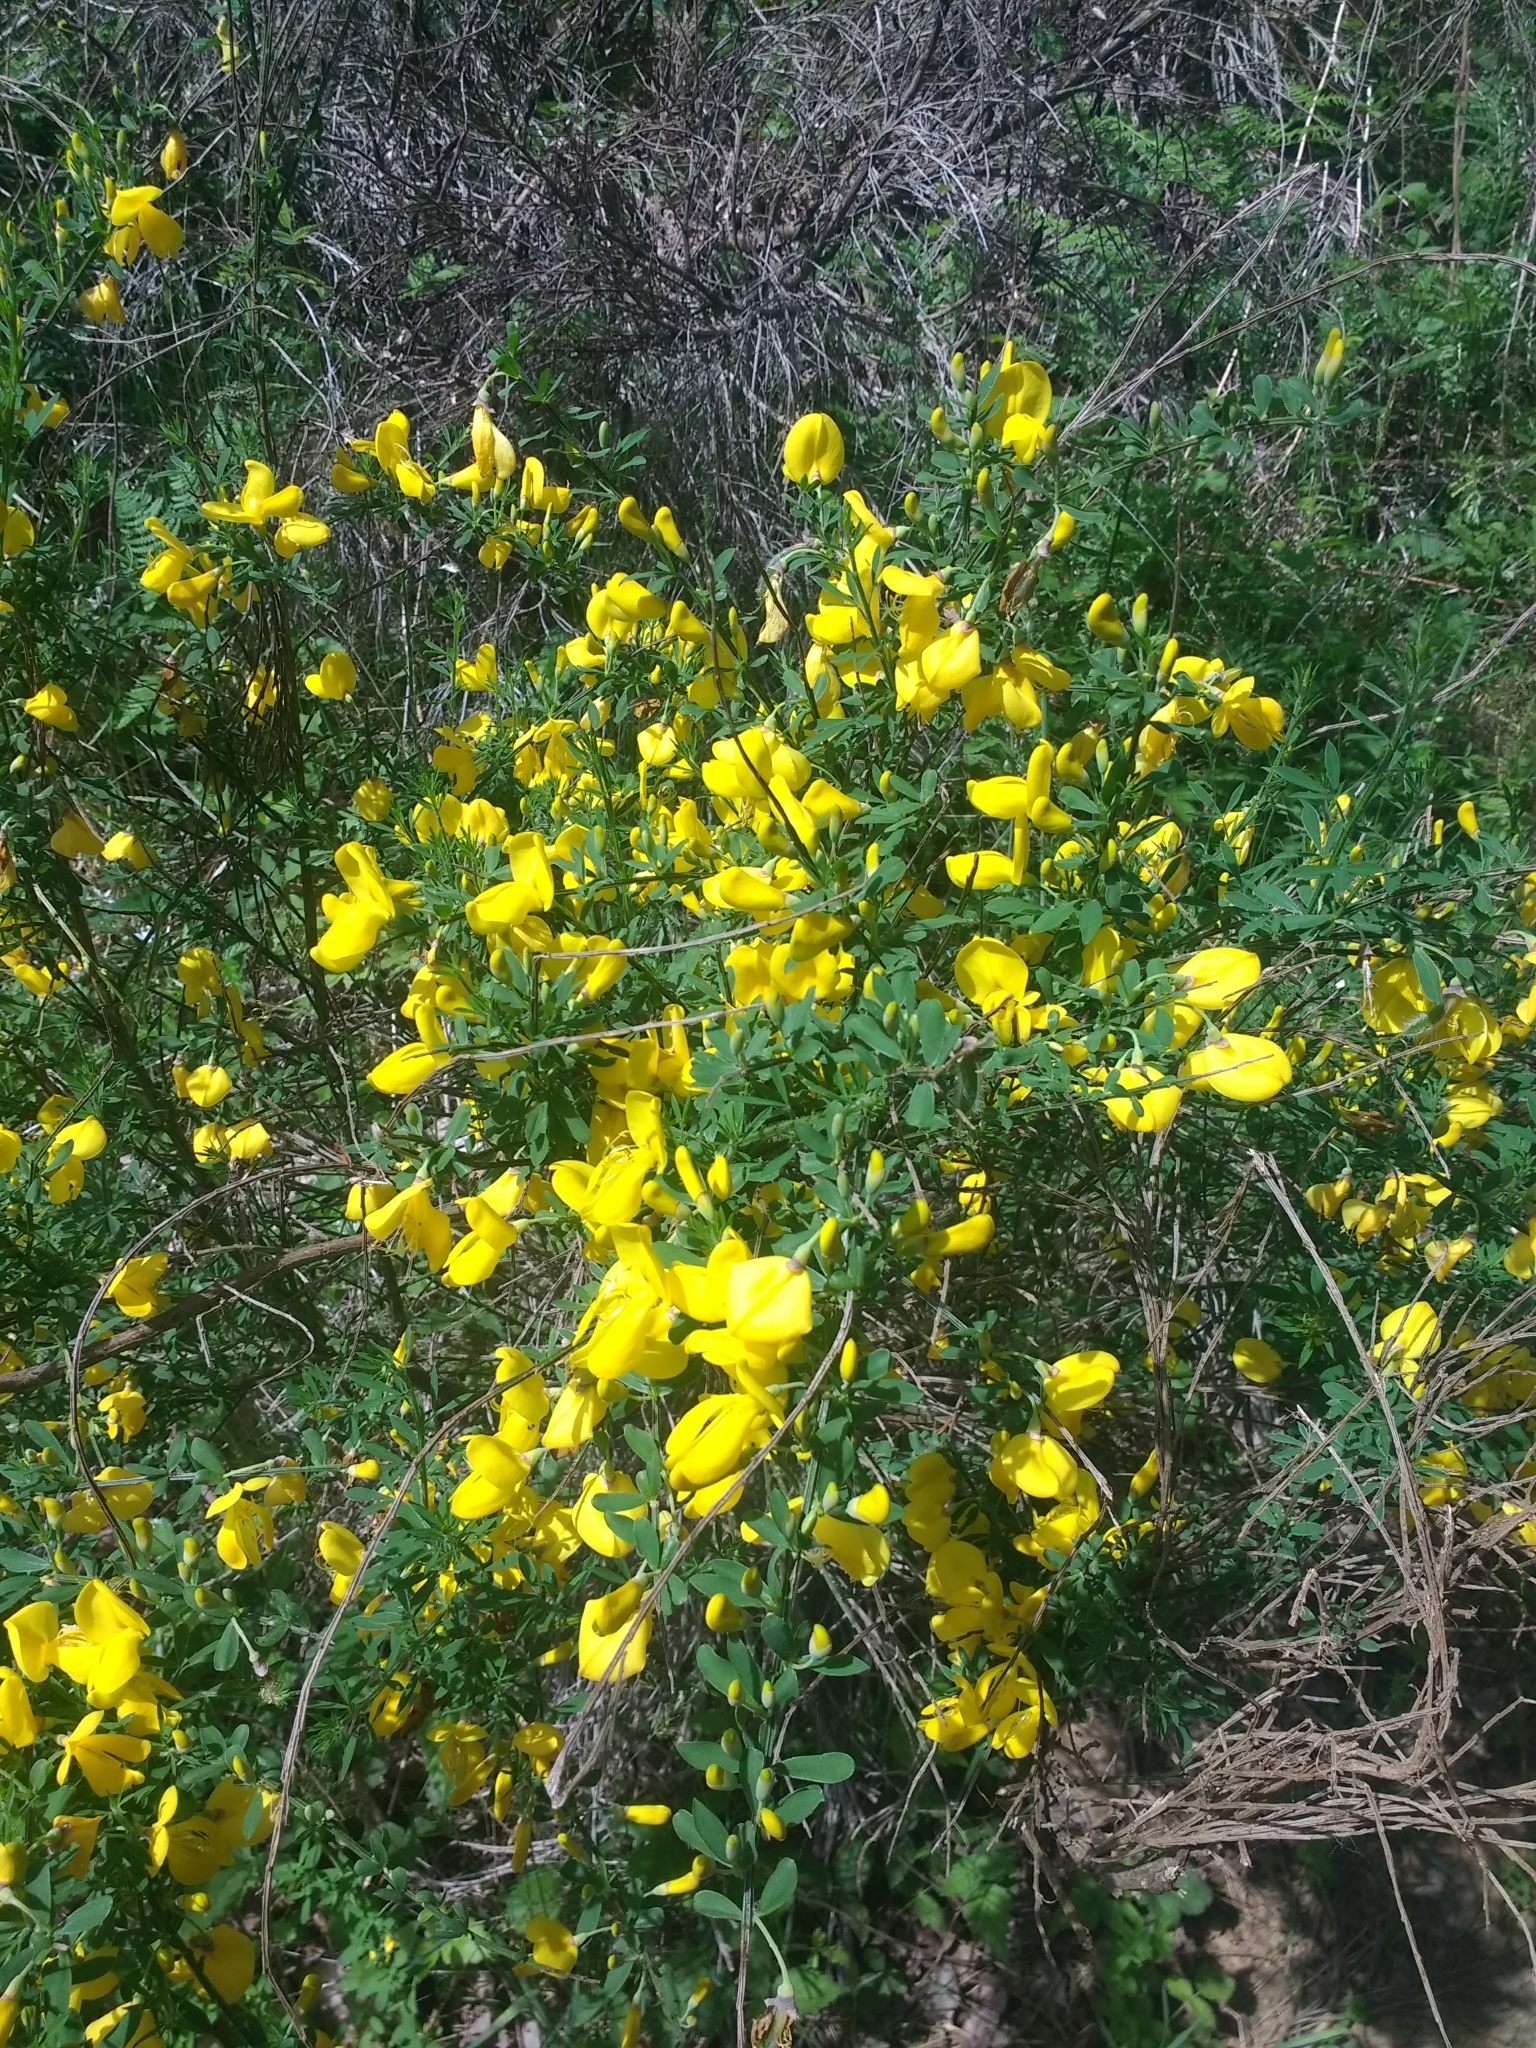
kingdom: Plantae
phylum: Tracheophyta
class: Magnoliopsida
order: Fabales
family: Fabaceae
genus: Cytisus
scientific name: Cytisus scoparius
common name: Scotch broom
